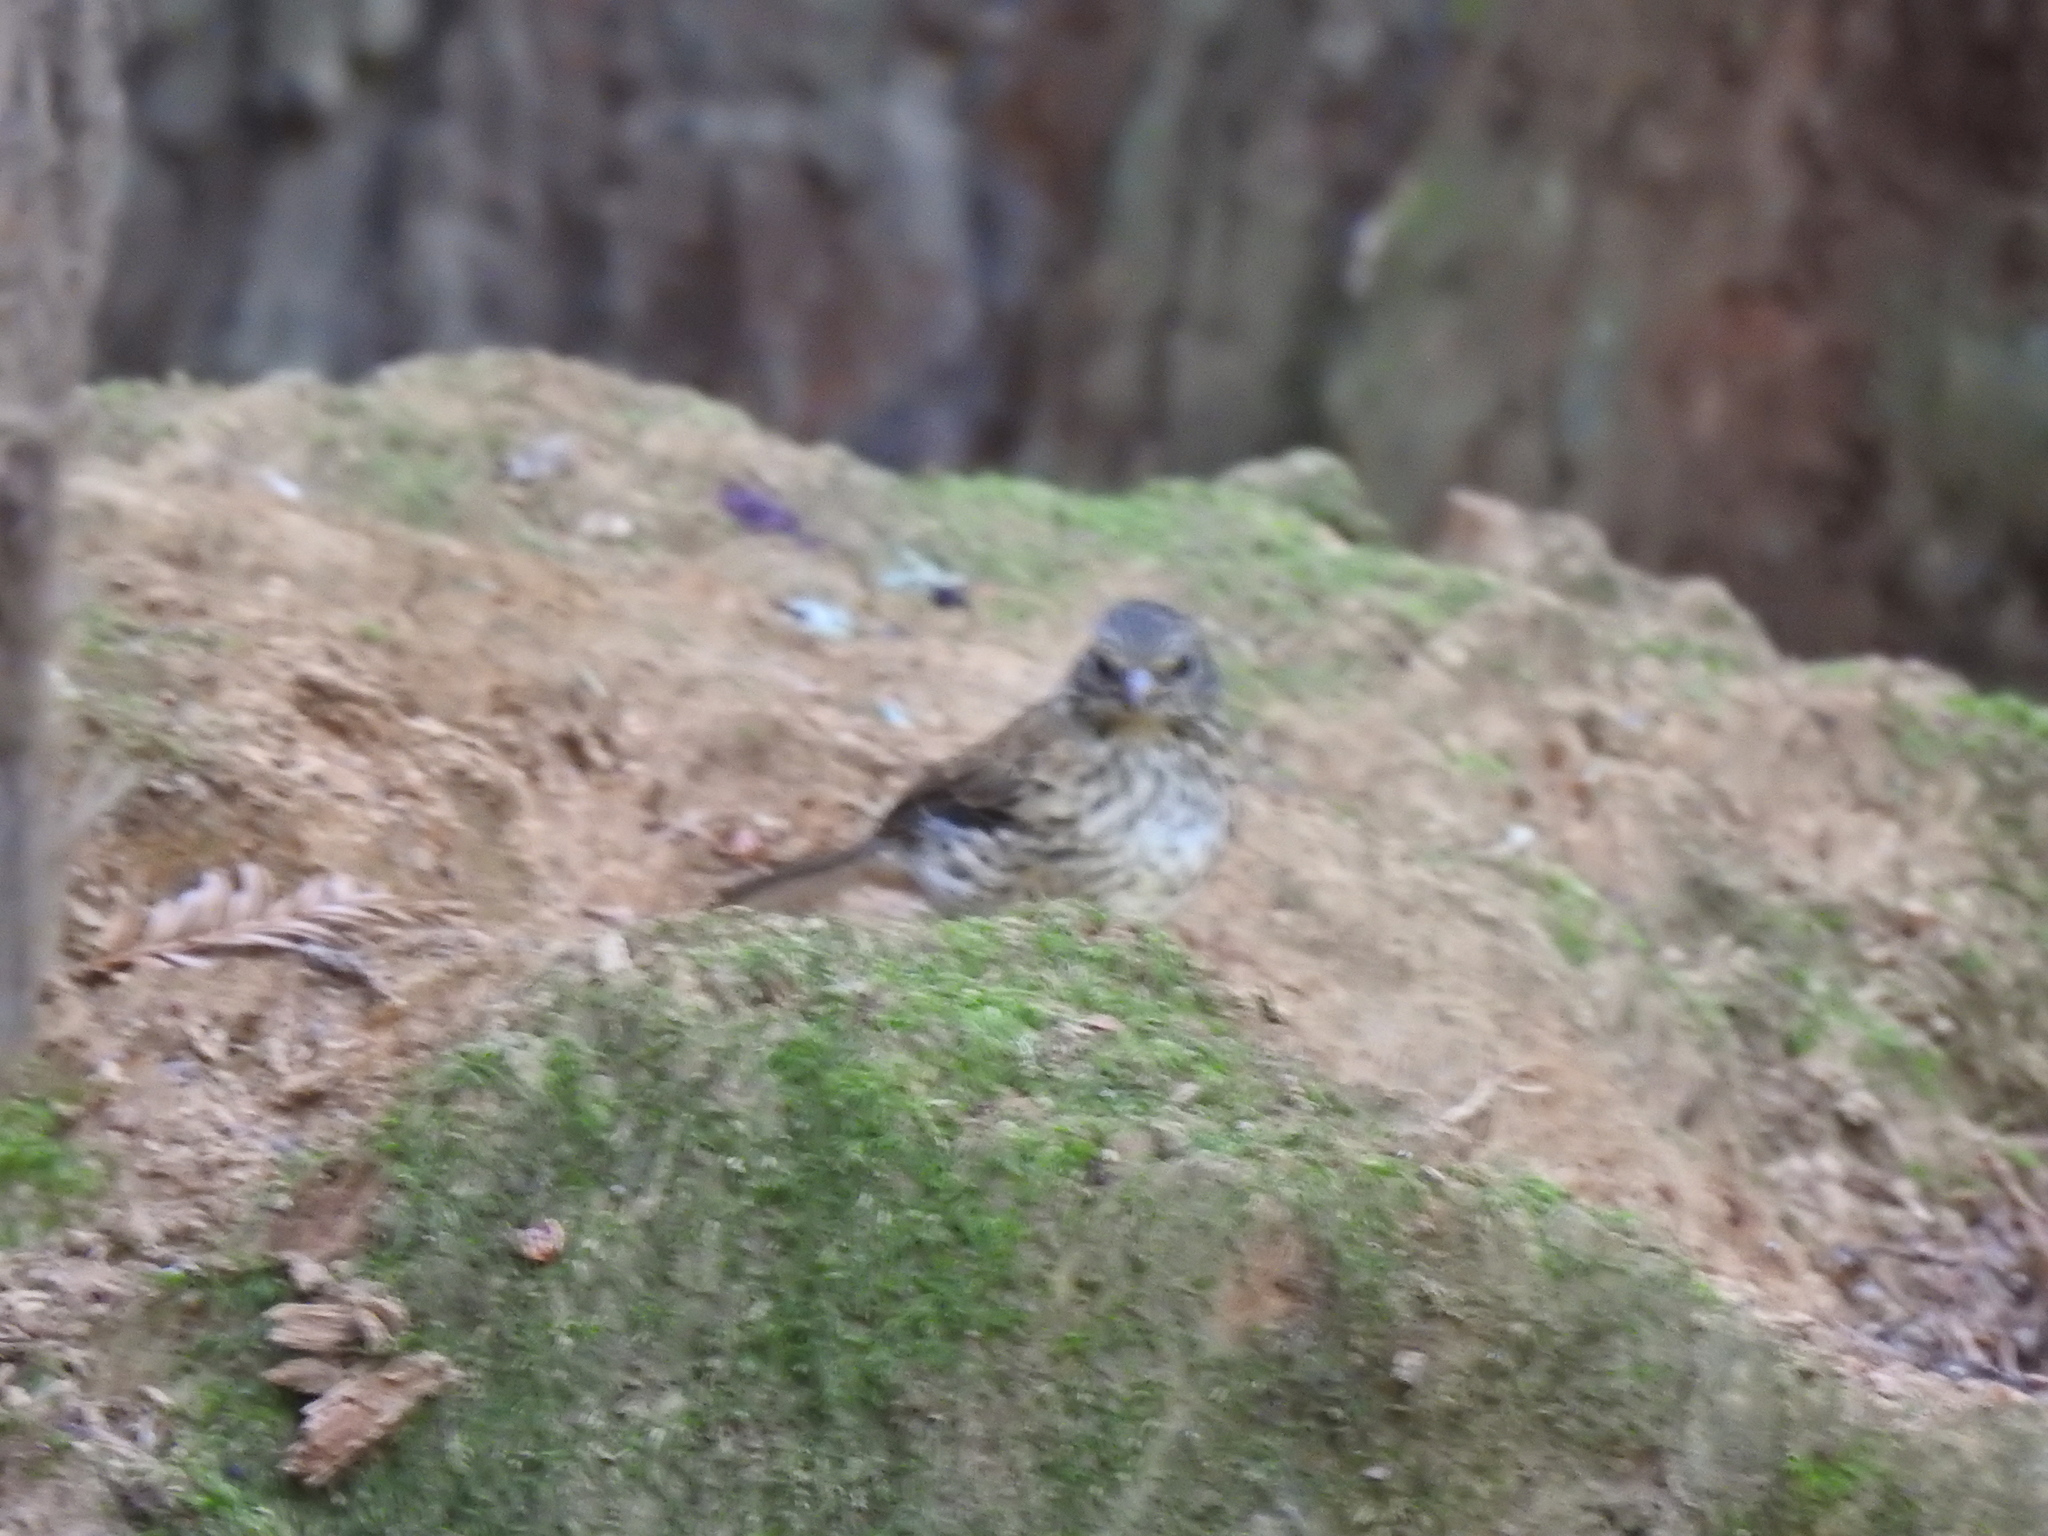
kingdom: Animalia
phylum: Chordata
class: Aves
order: Passeriformes
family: Passerellidae
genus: Junco
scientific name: Junco hyemalis
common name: Dark-eyed junco
